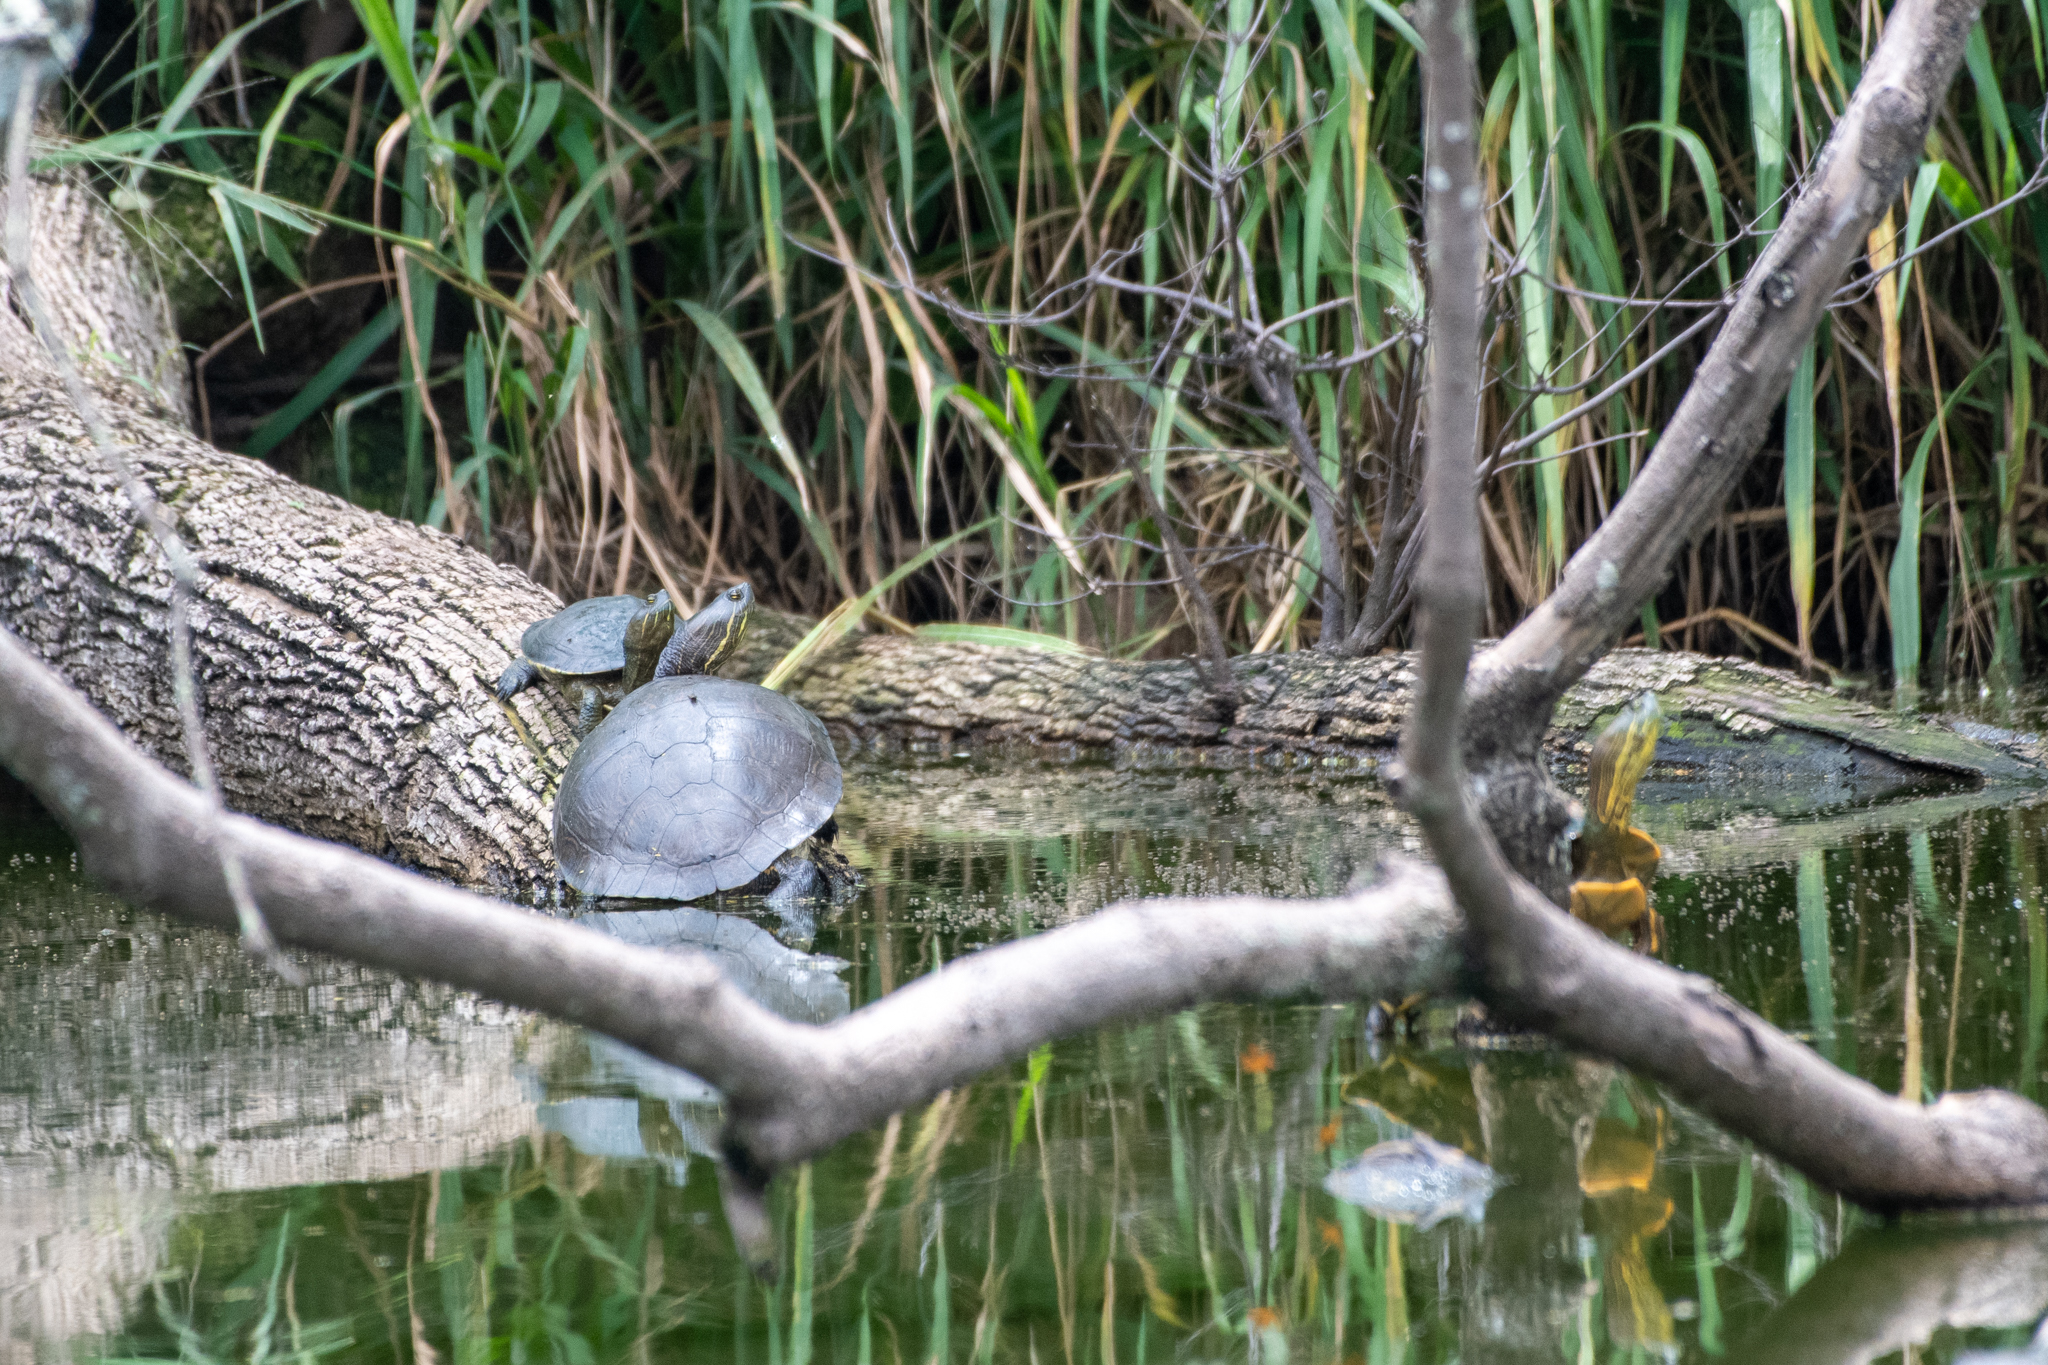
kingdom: Animalia
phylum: Chordata
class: Testudines
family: Emydidae
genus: Trachemys
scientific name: Trachemys venusta
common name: Mesoamerican slider
